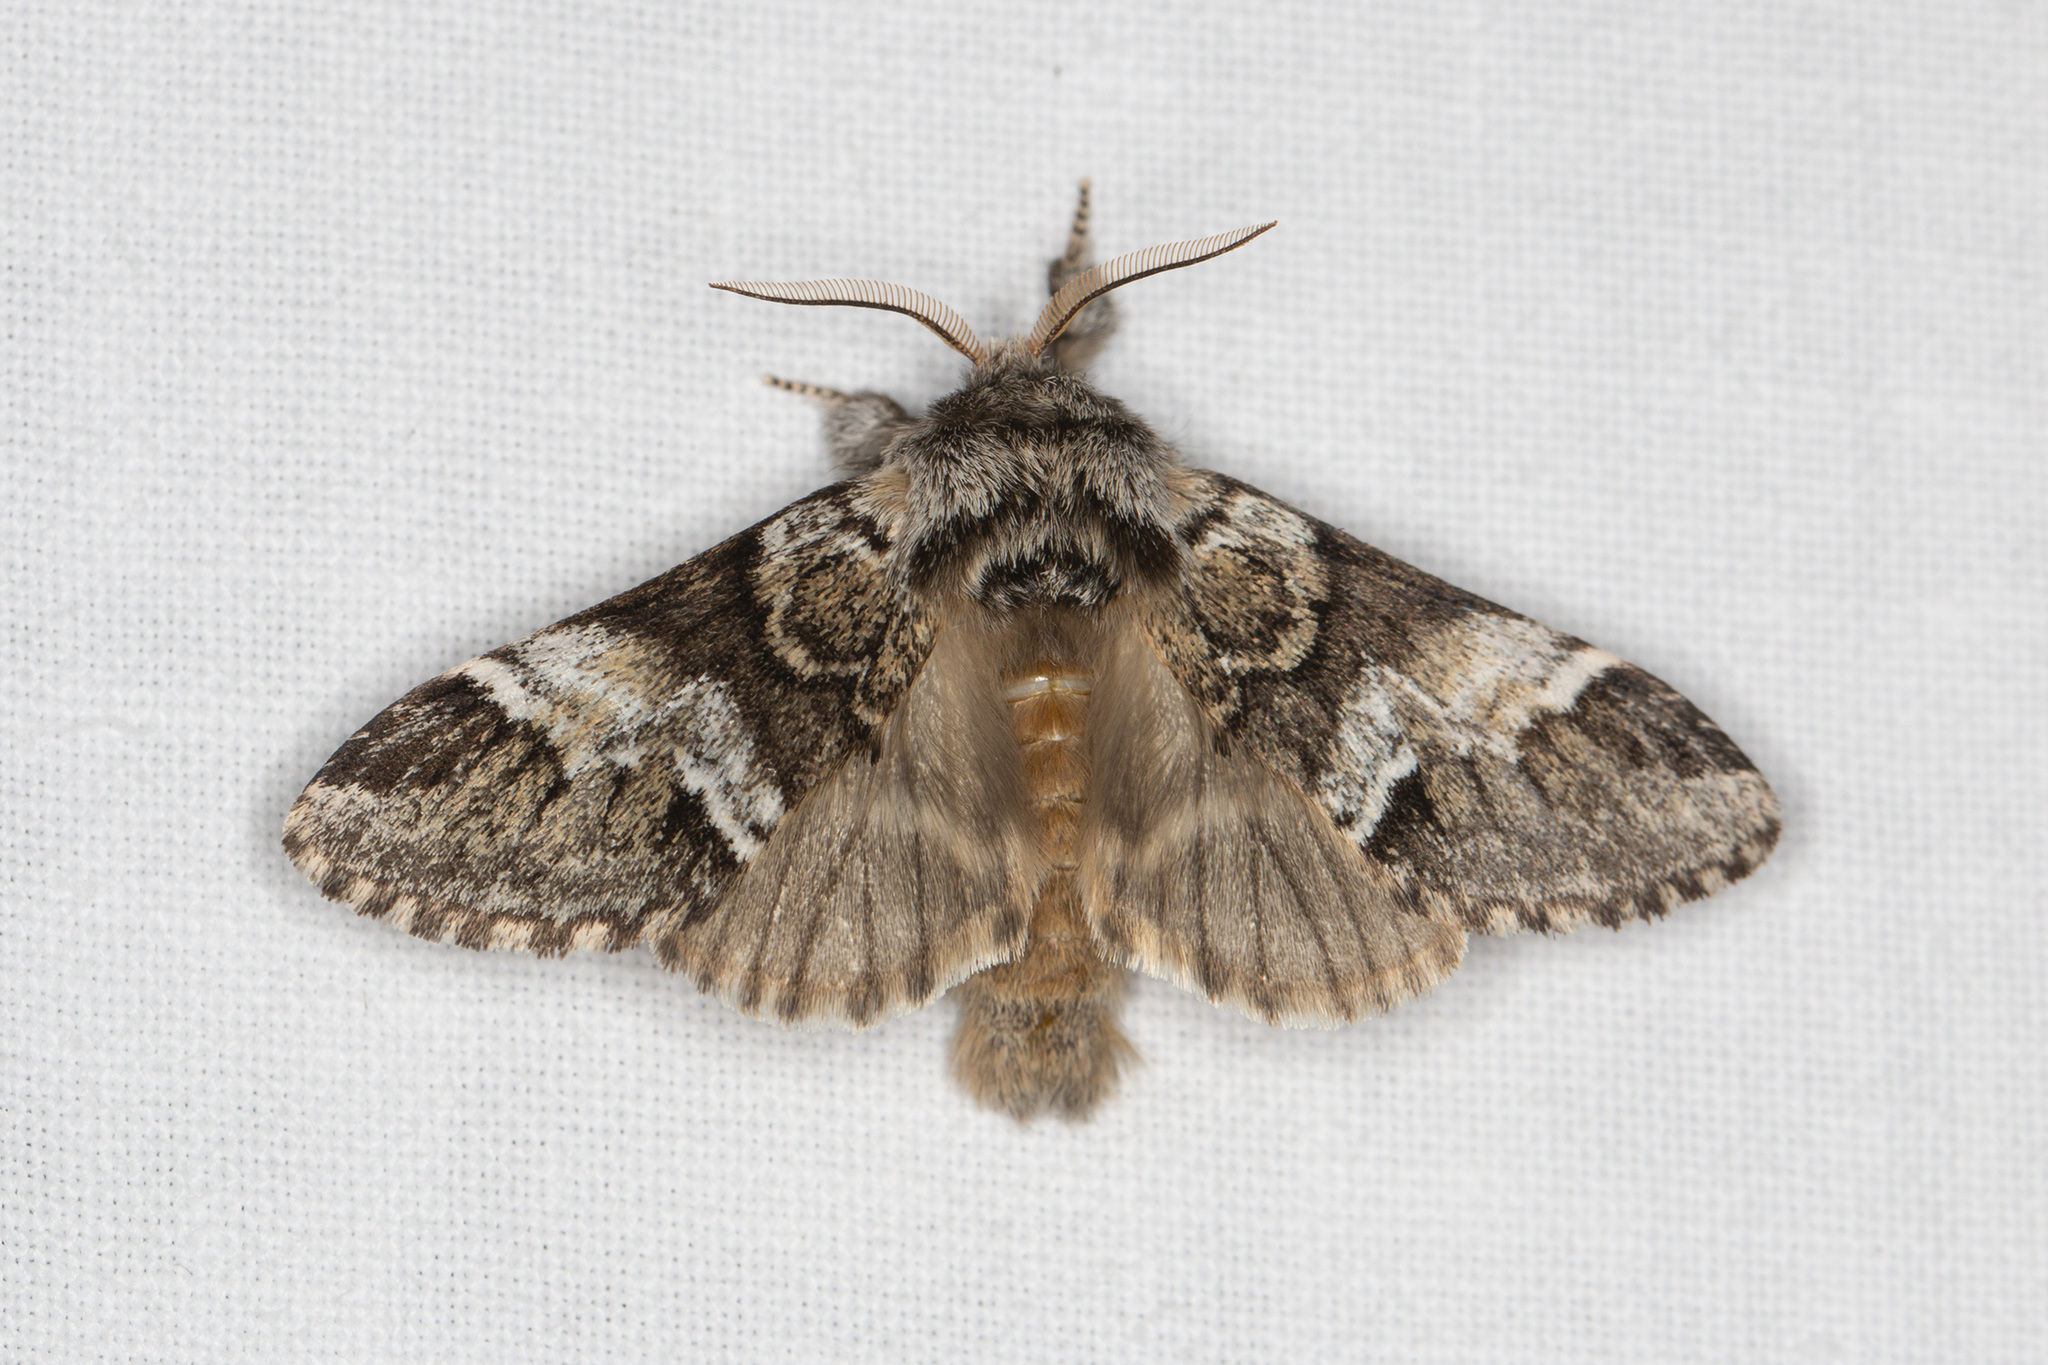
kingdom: Animalia
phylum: Arthropoda
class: Insecta
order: Lepidoptera
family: Notodontidae
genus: Drymonia
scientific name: Drymonia dodonaea
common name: Marbled brown
